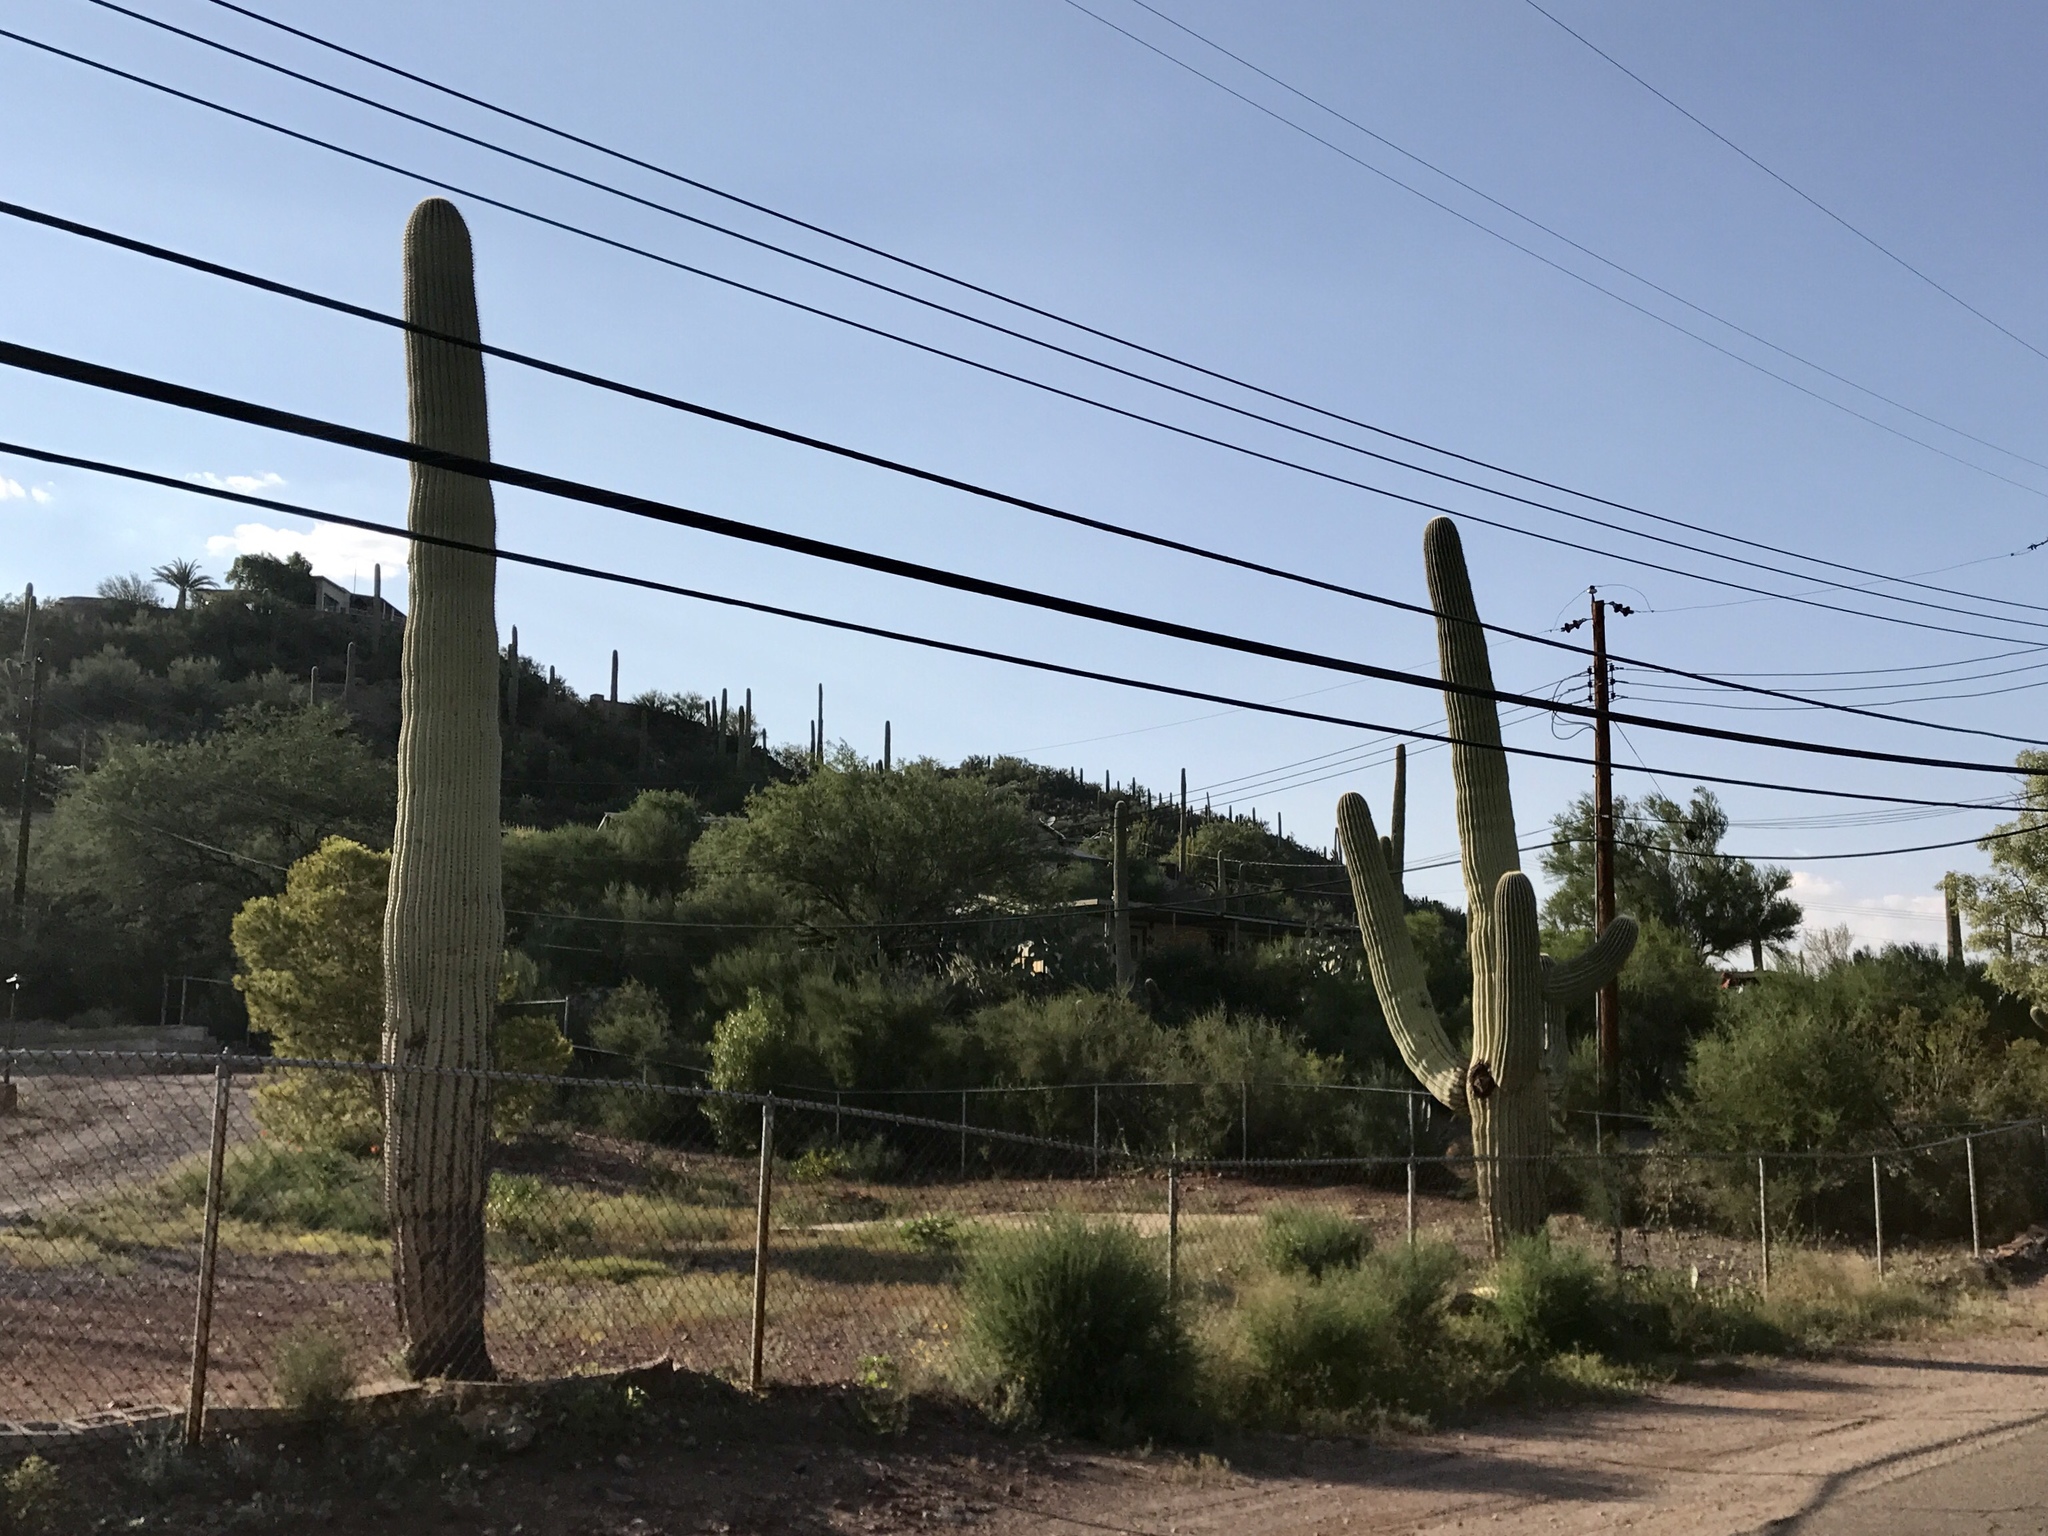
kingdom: Plantae
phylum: Tracheophyta
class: Magnoliopsida
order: Caryophyllales
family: Cactaceae
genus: Carnegiea
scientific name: Carnegiea gigantea
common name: Saguaro
